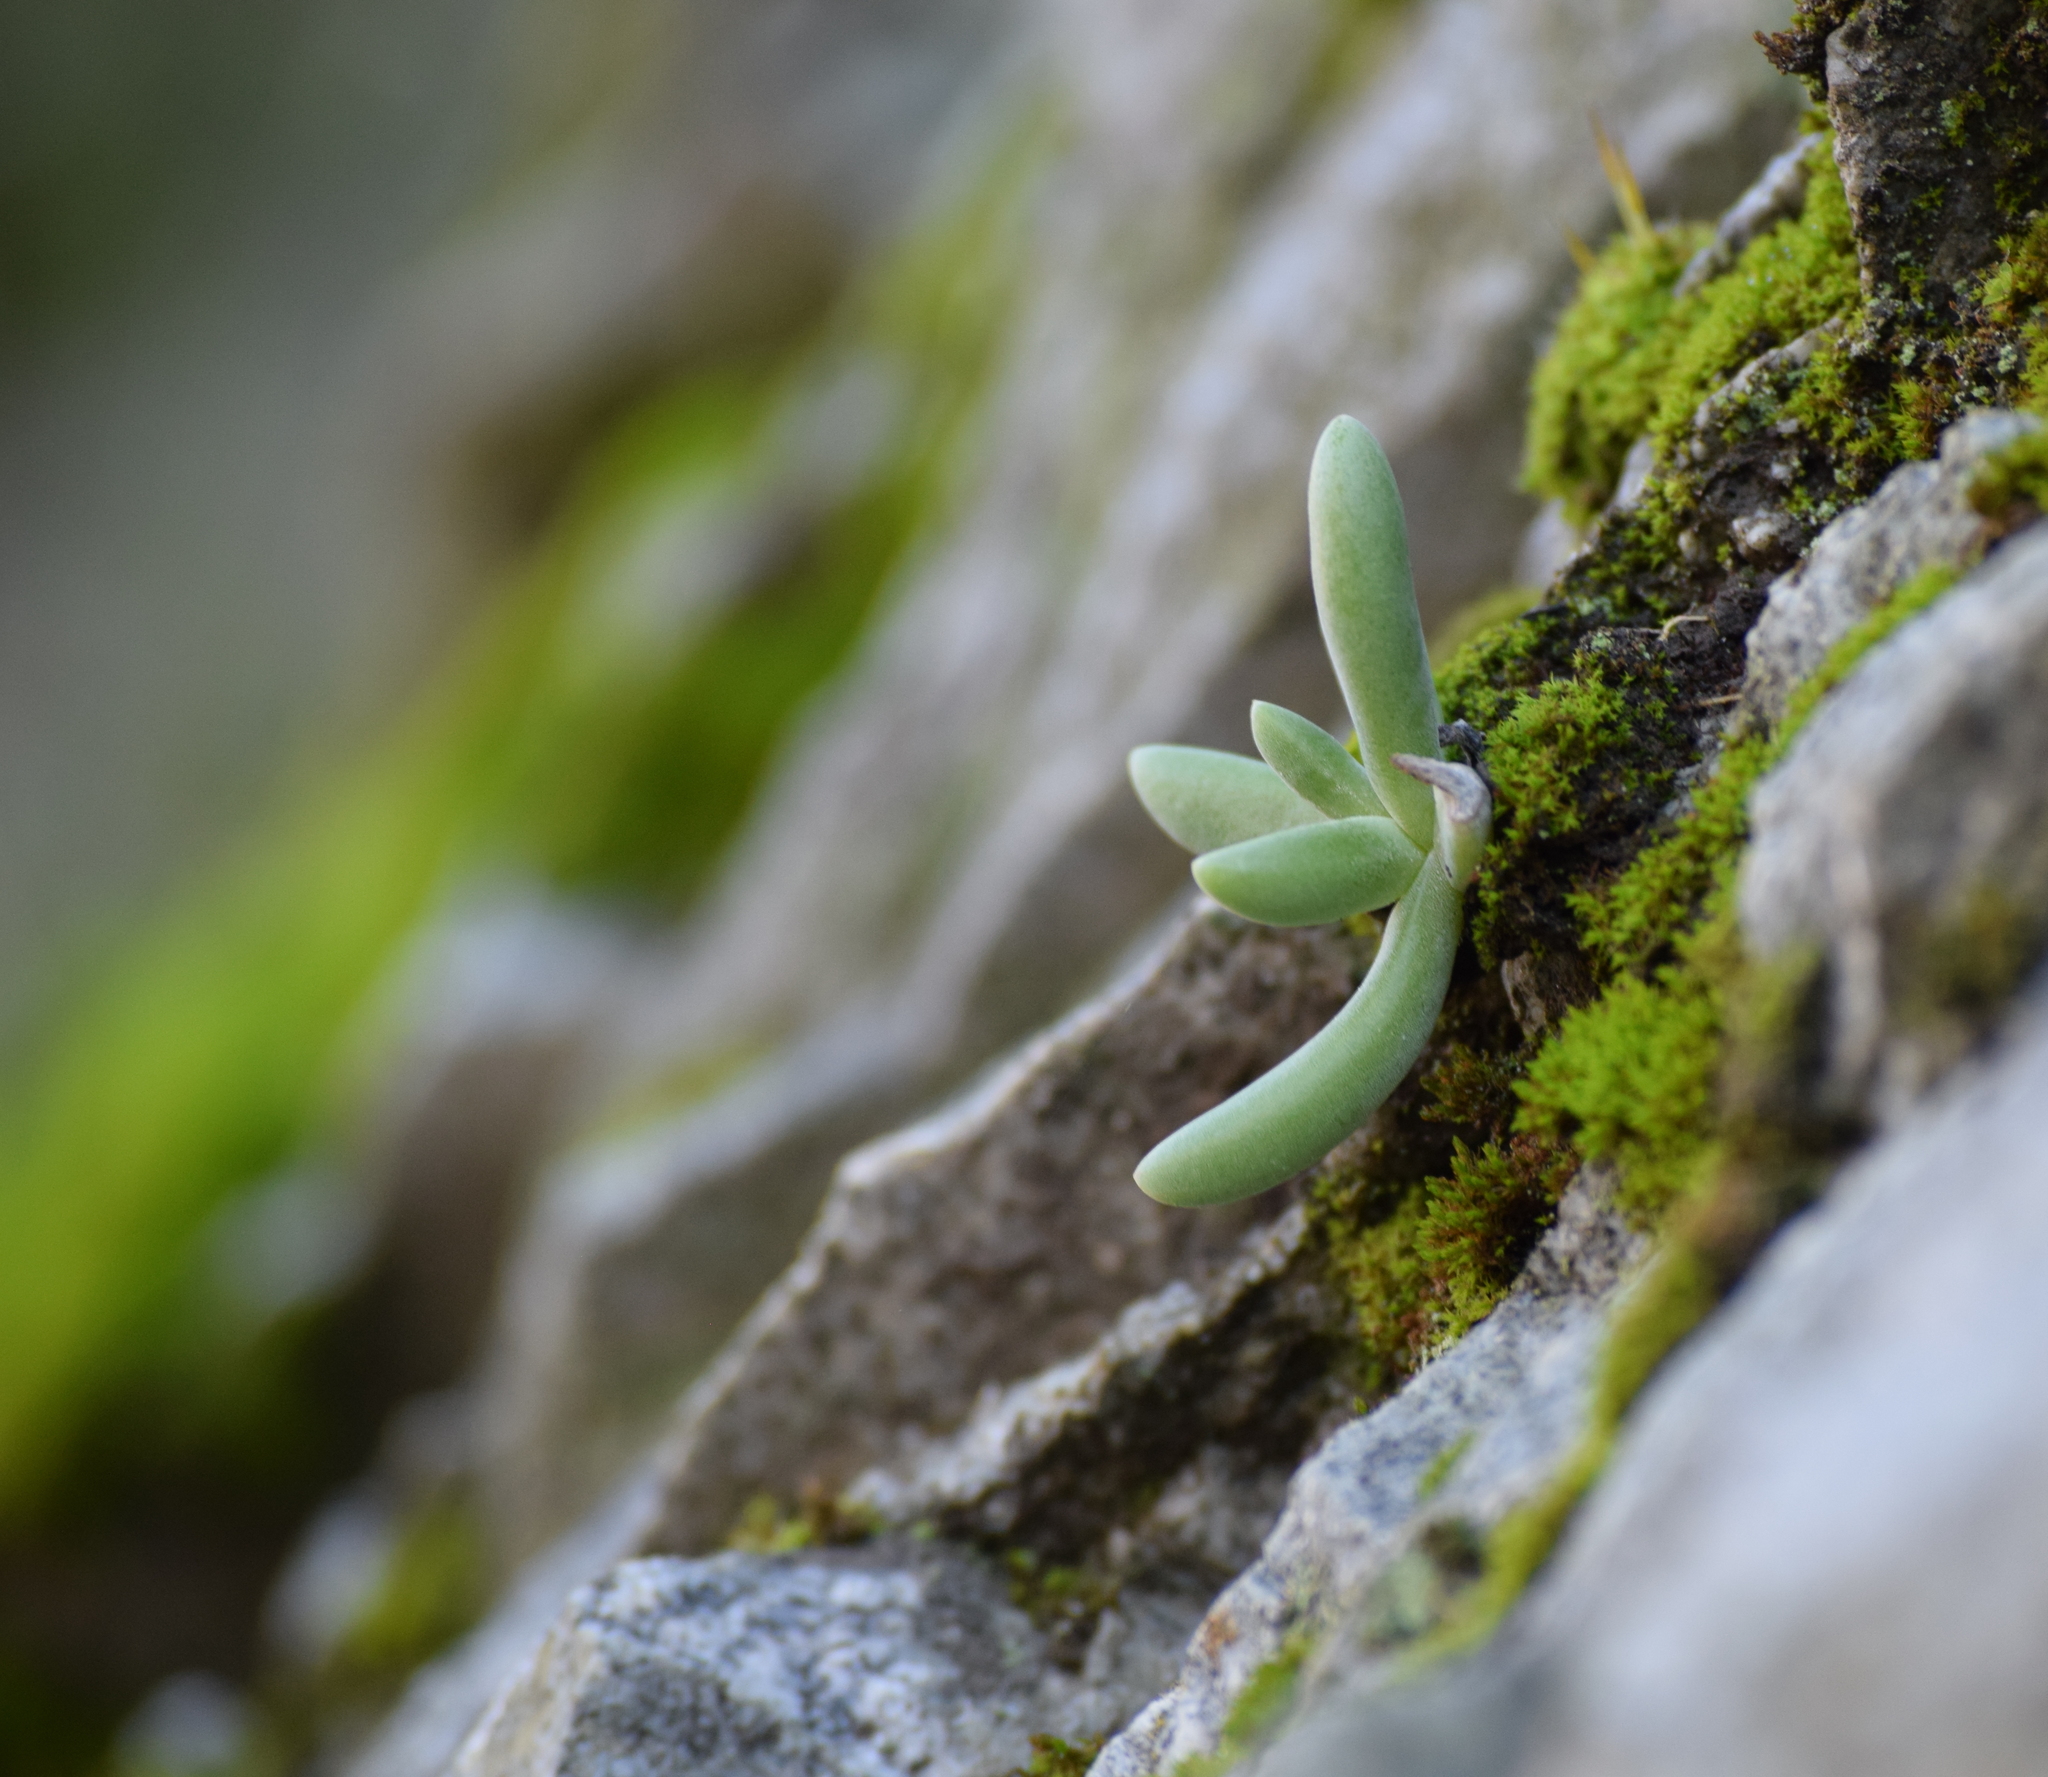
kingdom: Plantae
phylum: Tracheophyta
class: Magnoliopsida
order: Saxifragales
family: Crassulaceae
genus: Dudleya
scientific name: Dudleya densiflora
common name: San gabriel mountains dudleya
